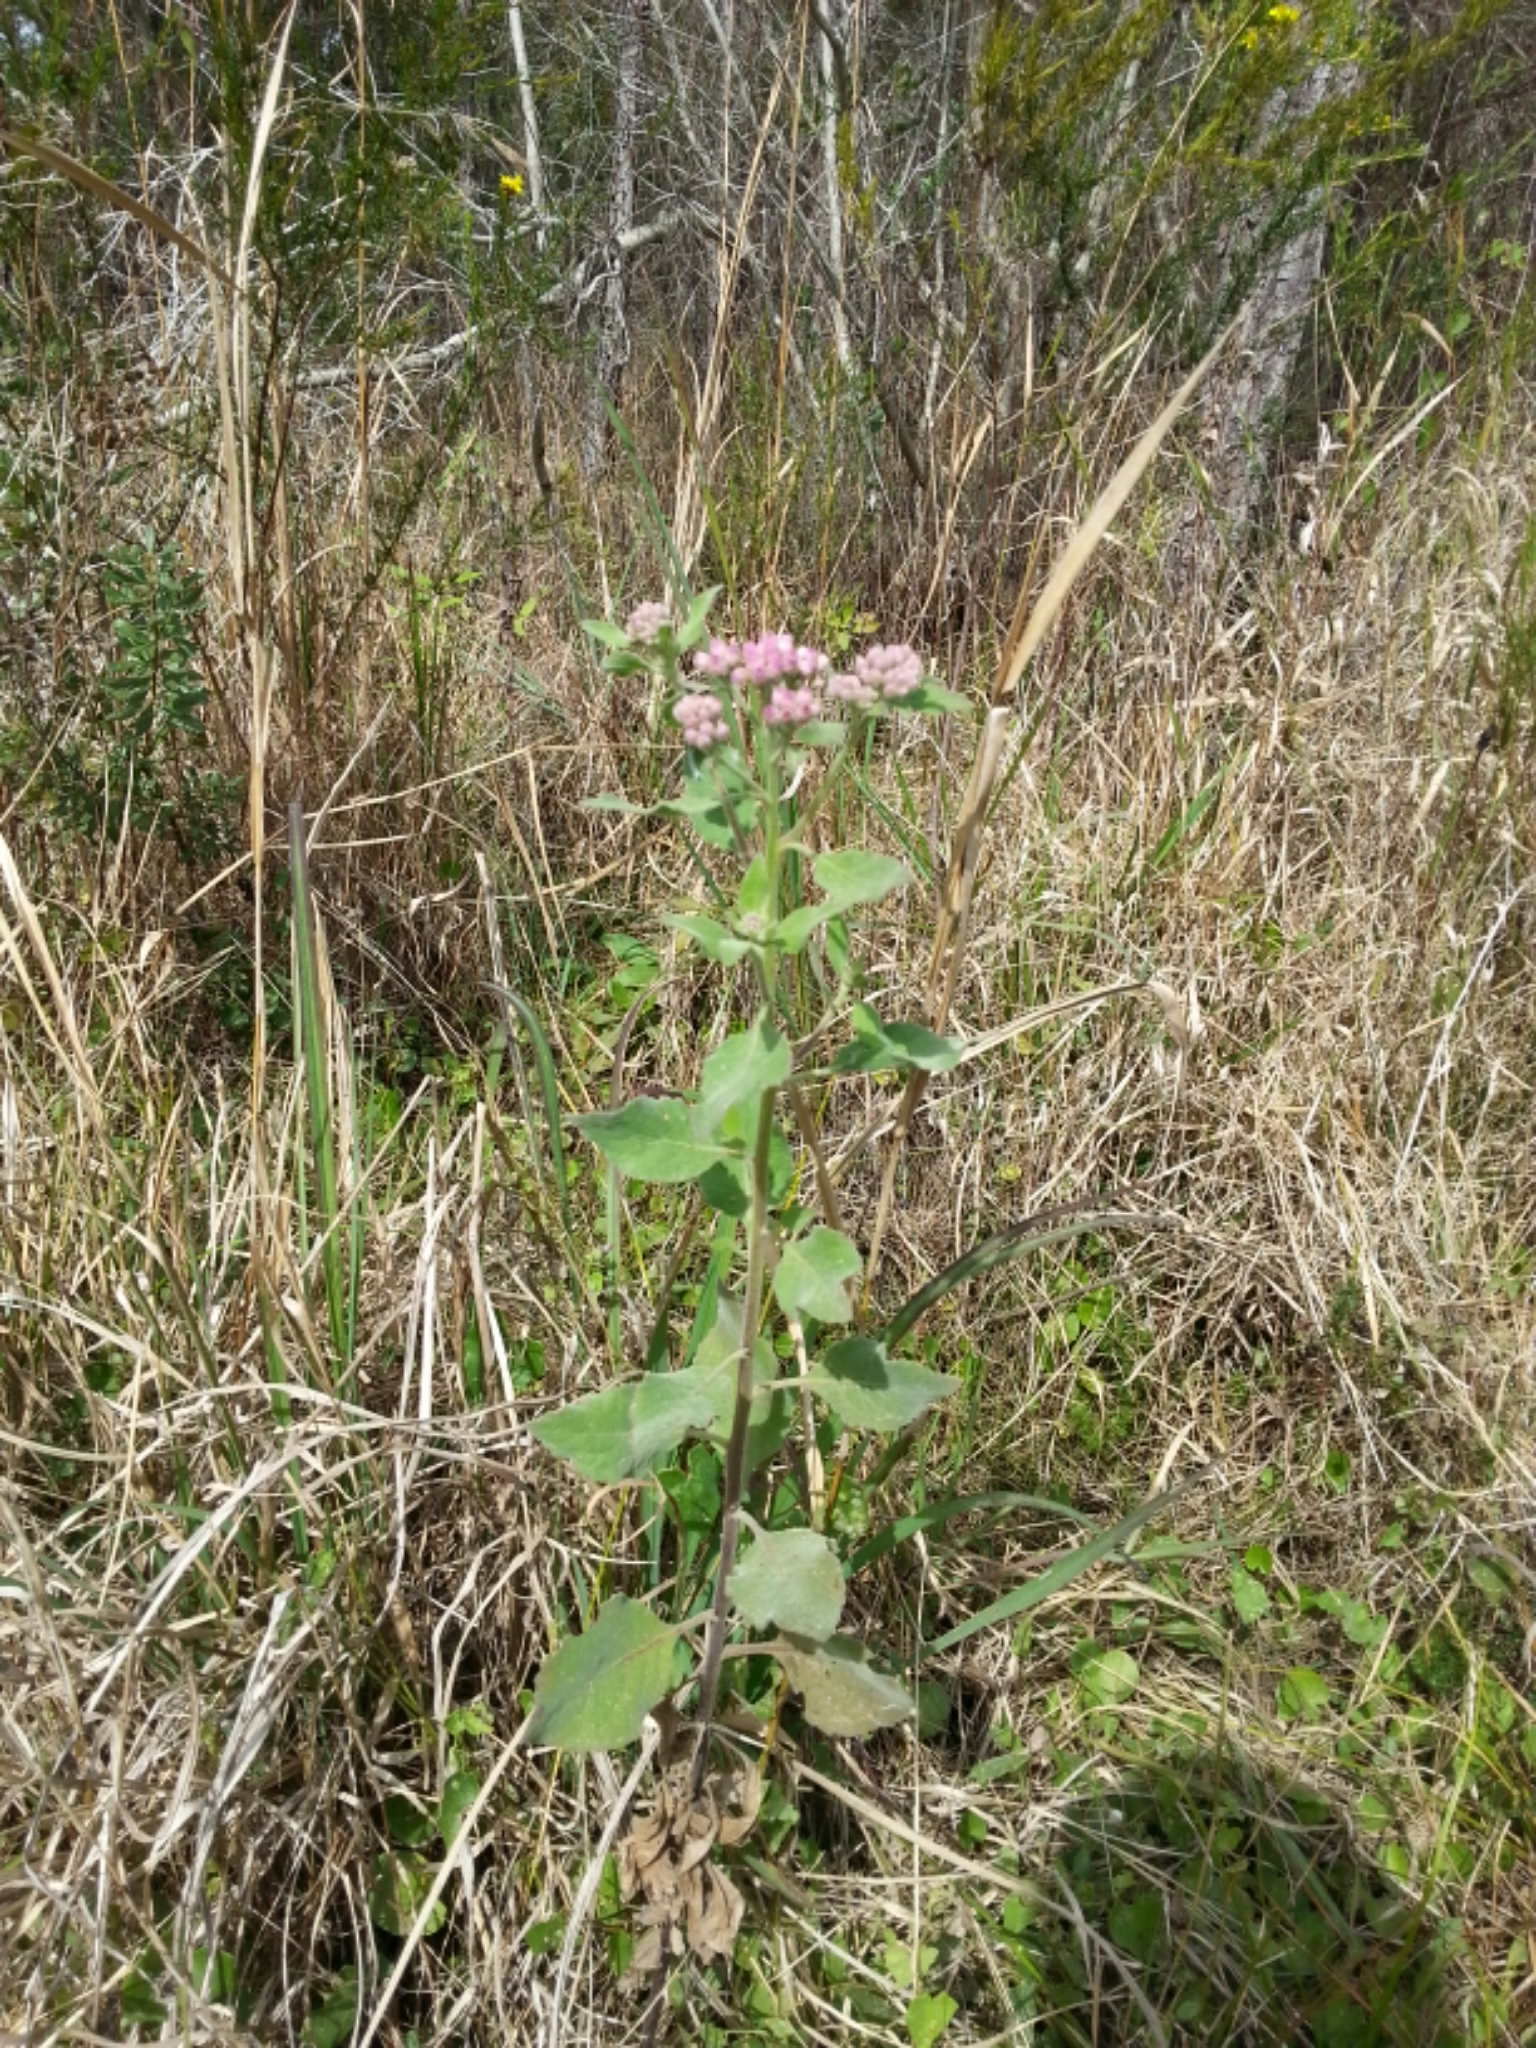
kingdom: Plantae
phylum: Tracheophyta
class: Magnoliopsida
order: Asterales
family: Asteraceae
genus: Pluchea
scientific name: Pluchea odorata
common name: Saltmarsh fleabane
